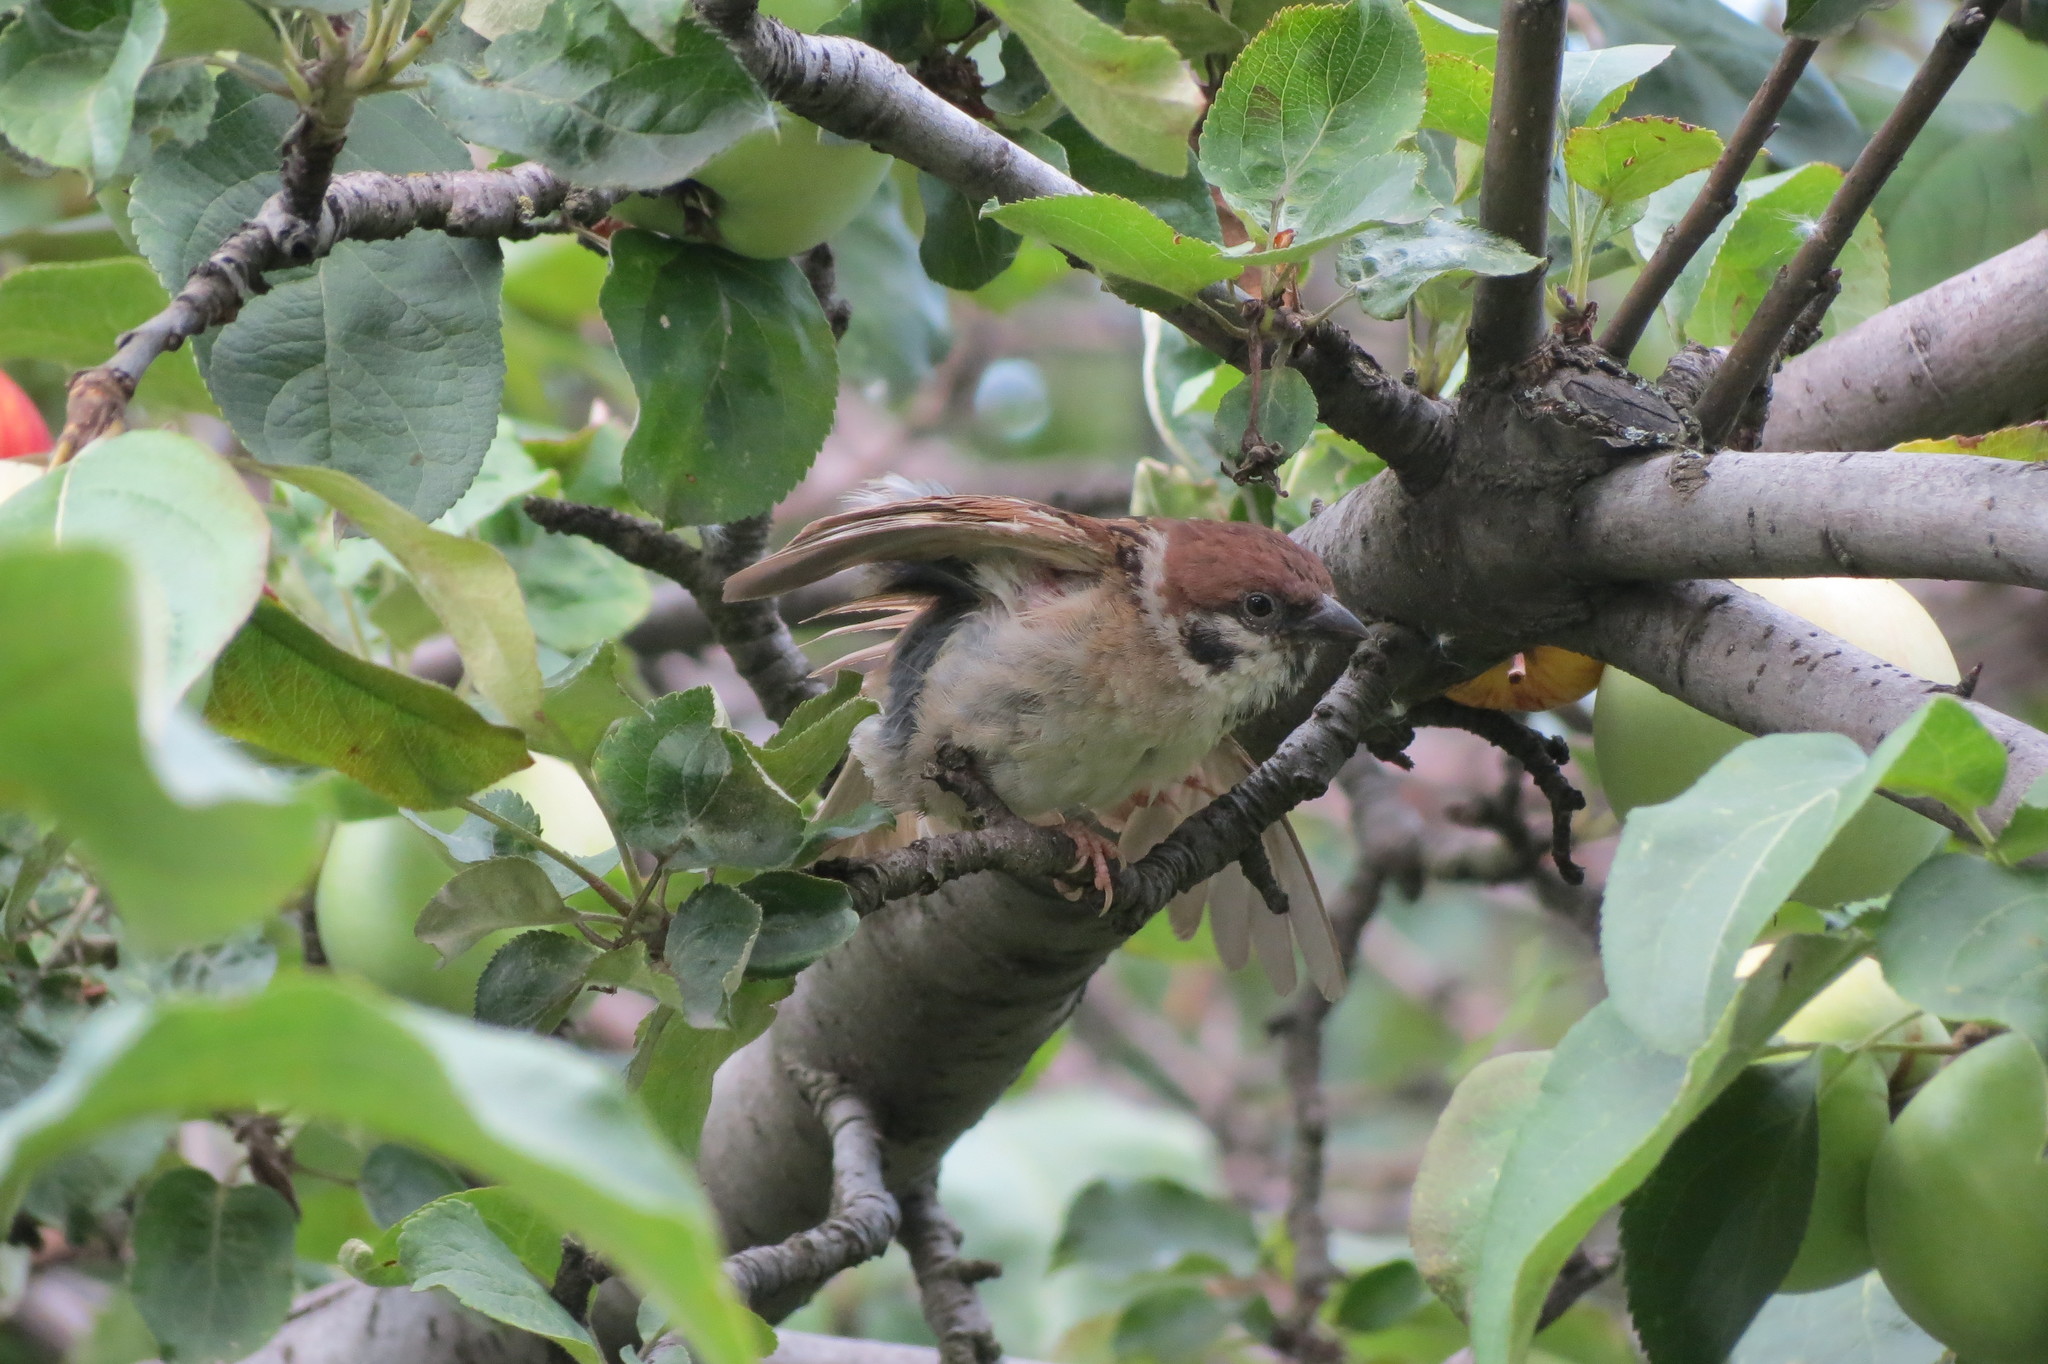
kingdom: Animalia
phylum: Chordata
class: Aves
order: Passeriformes
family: Passeridae
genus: Passer
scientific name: Passer montanus
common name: Eurasian tree sparrow
